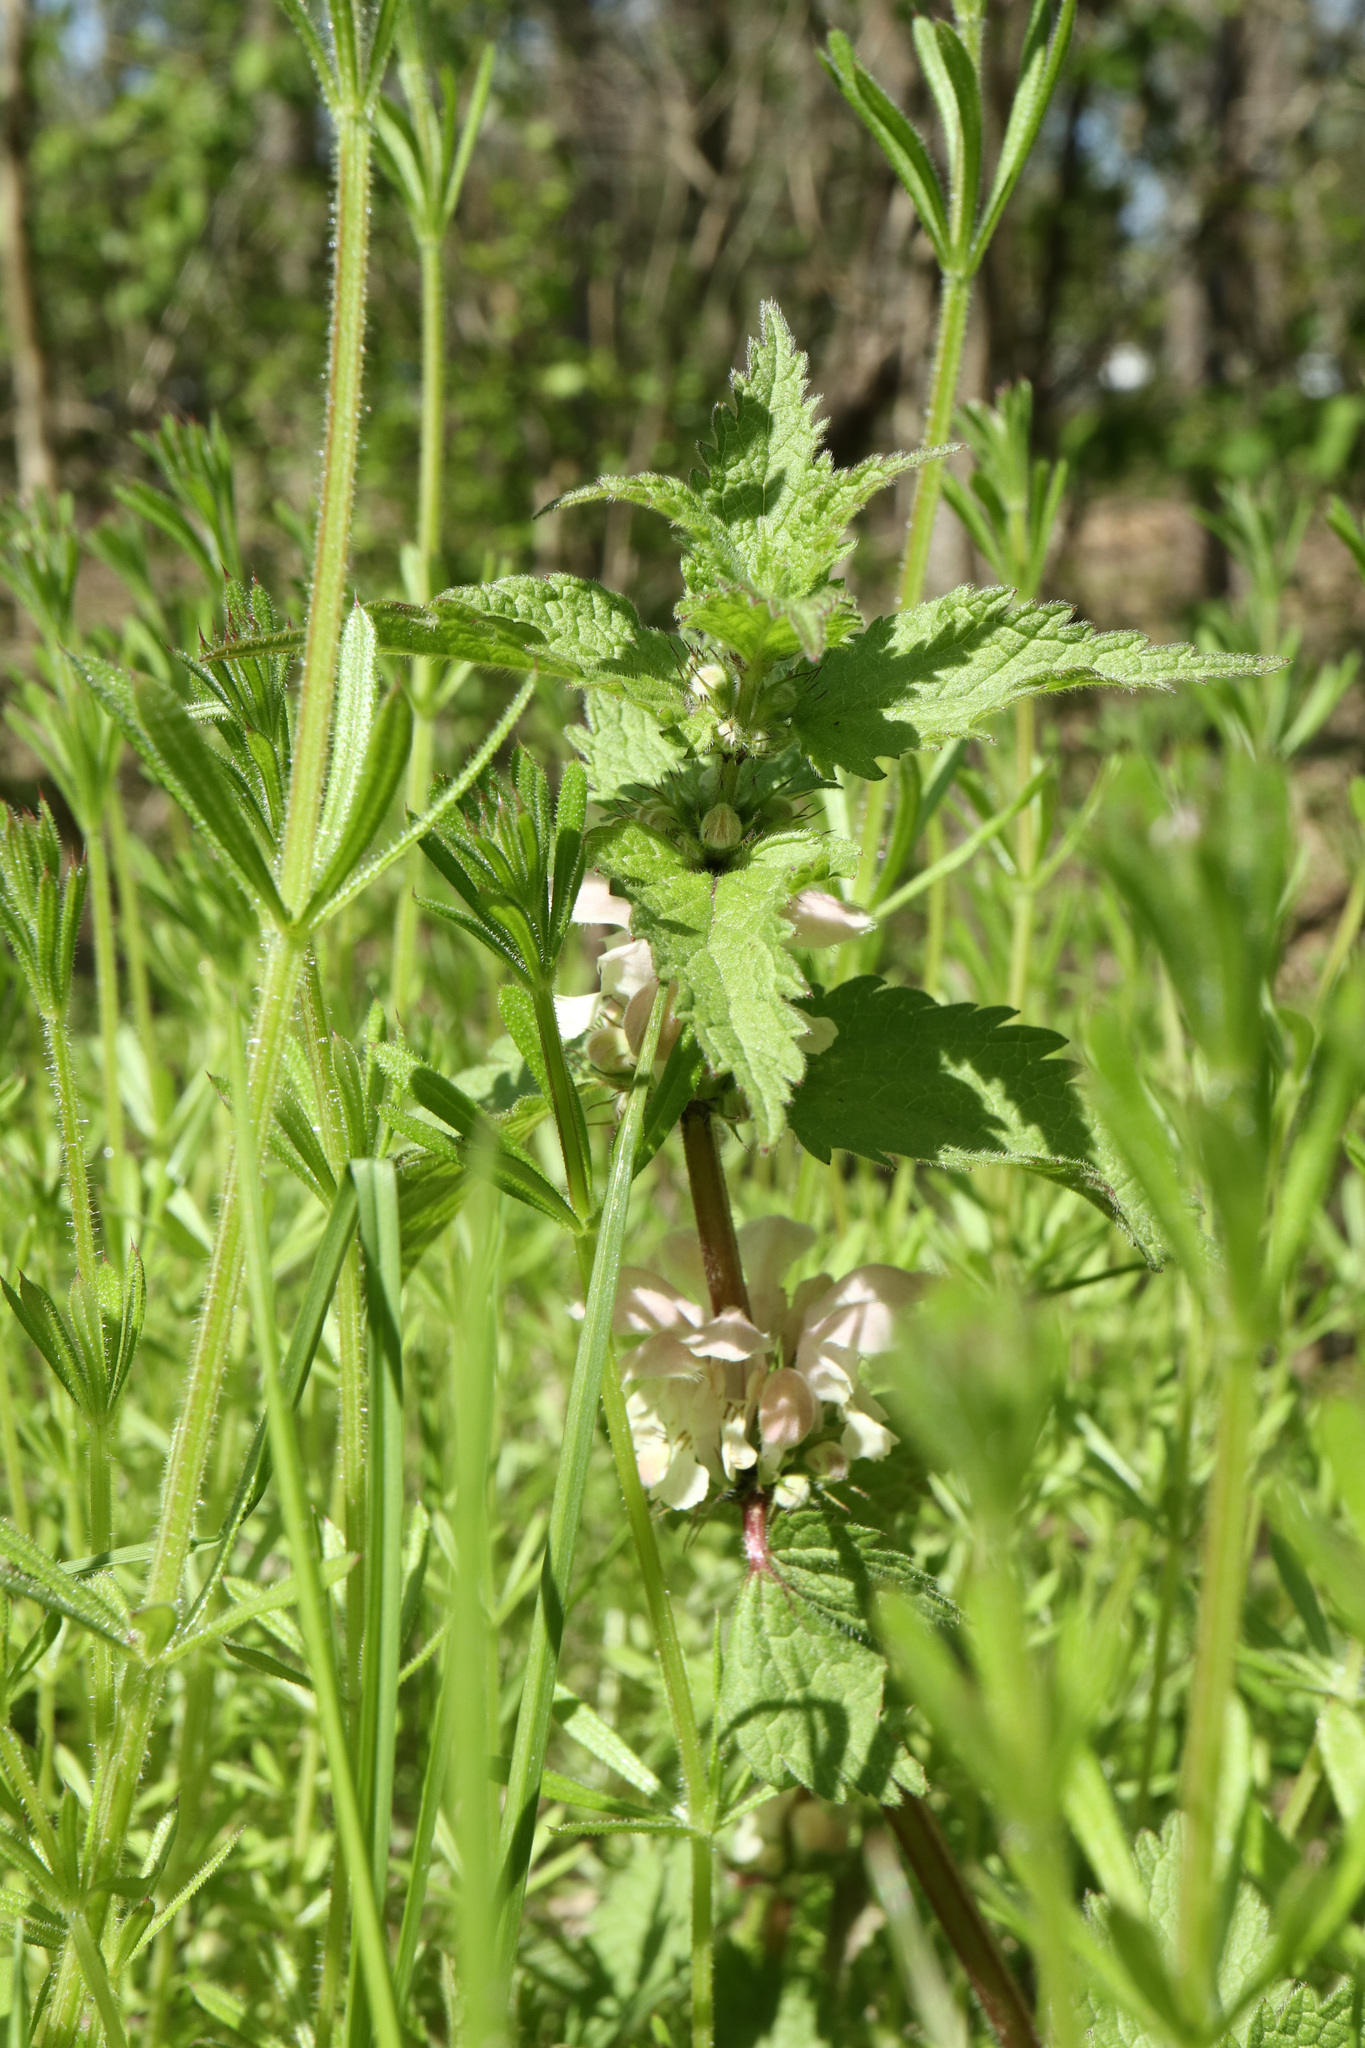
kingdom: Plantae
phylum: Tracheophyta
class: Magnoliopsida
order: Lamiales
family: Lamiaceae
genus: Lamium
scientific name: Lamium album
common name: White dead-nettle
